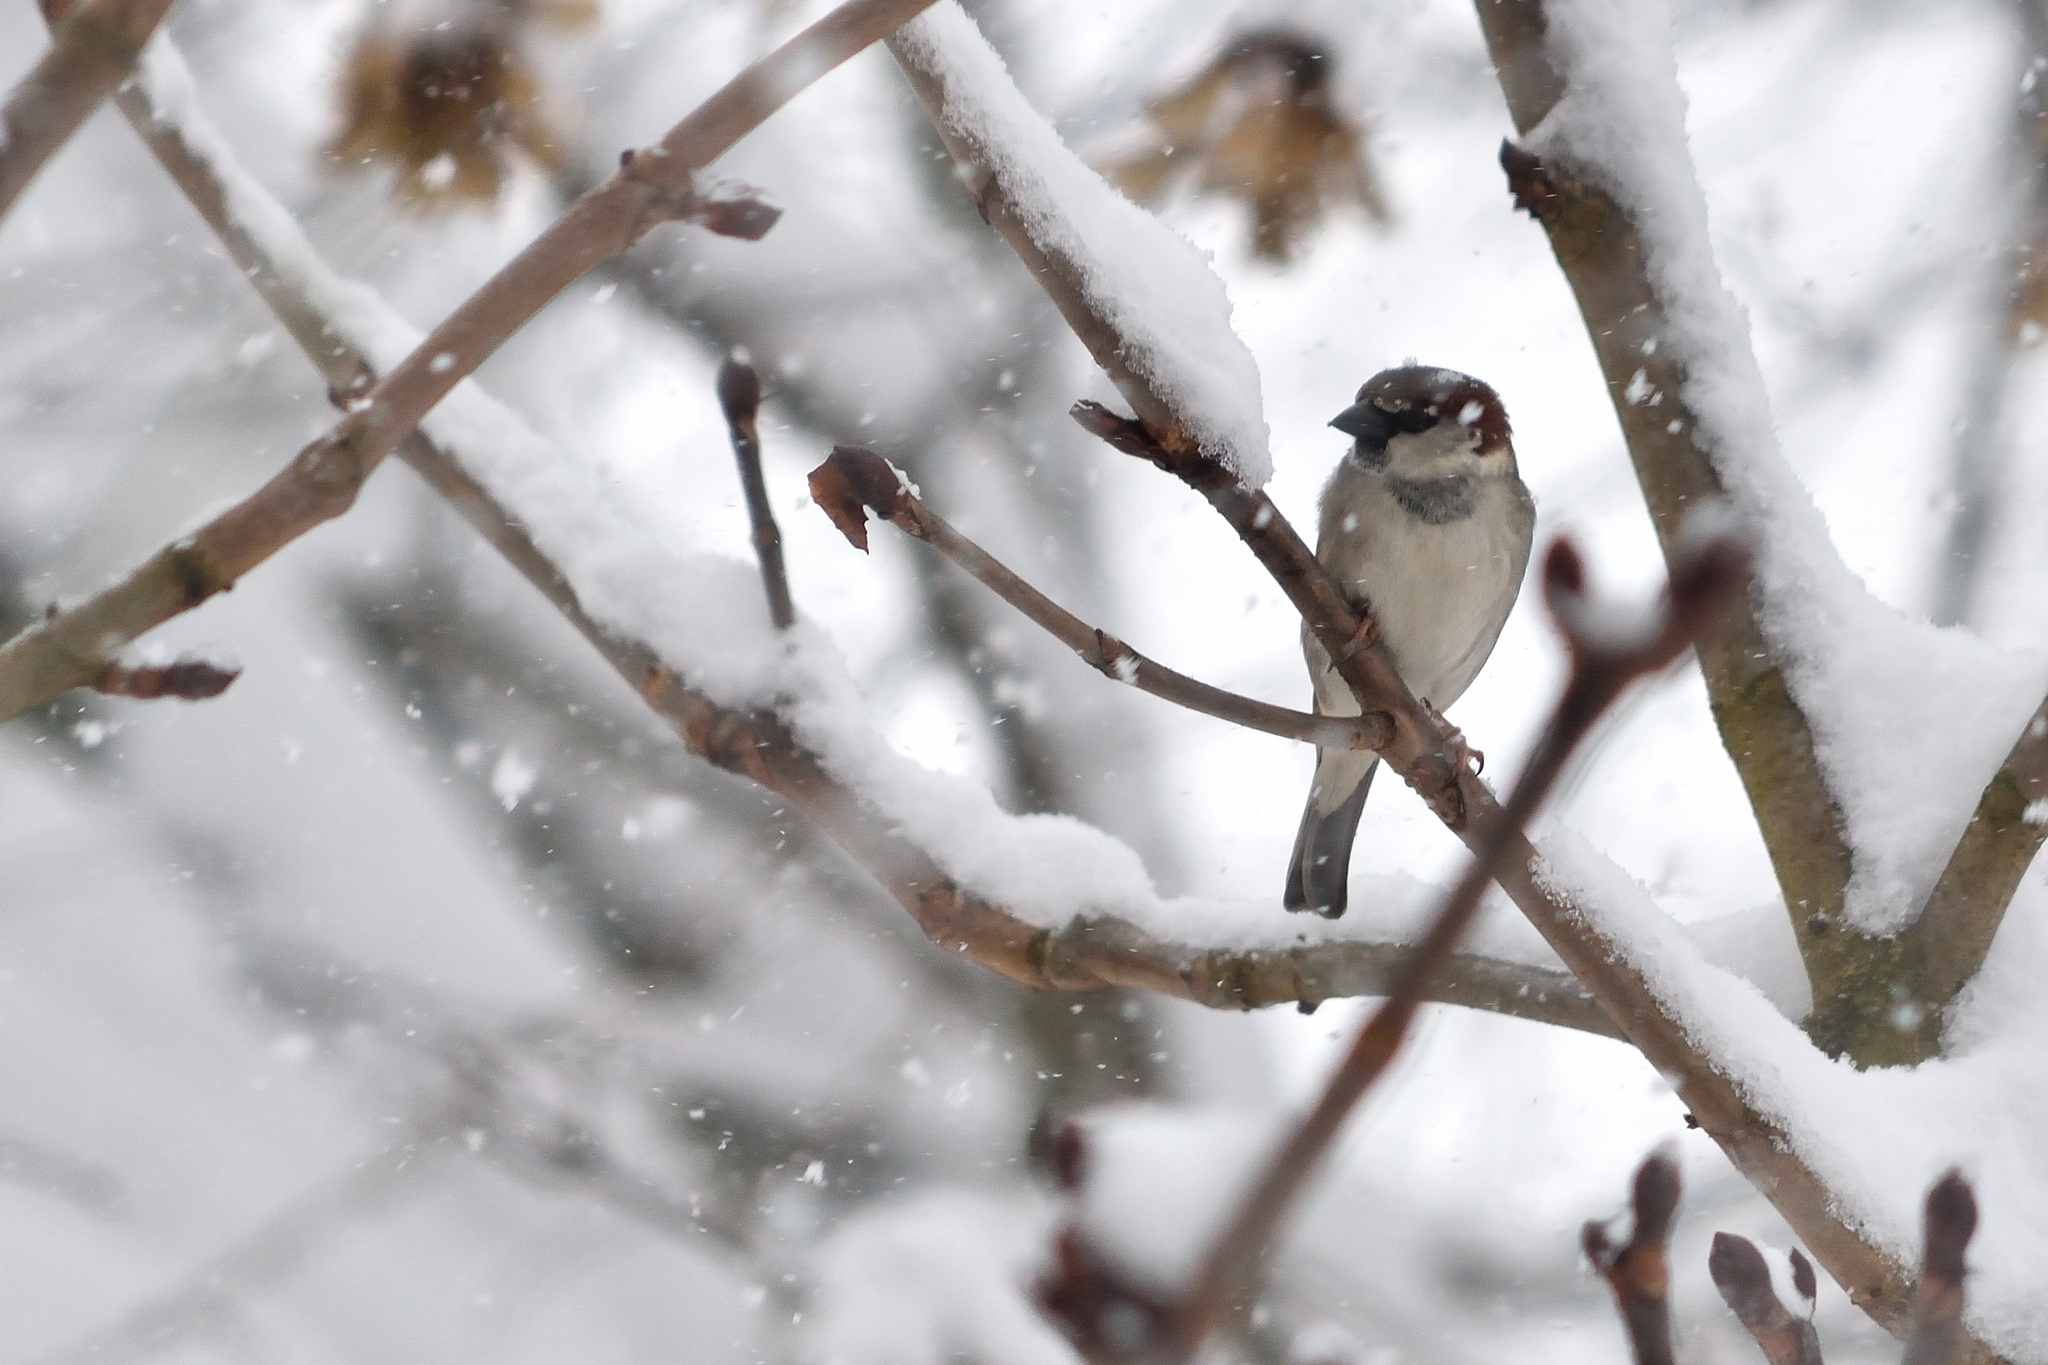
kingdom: Animalia
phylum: Chordata
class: Aves
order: Passeriformes
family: Passeridae
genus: Passer
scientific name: Passer domesticus
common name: House sparrow
